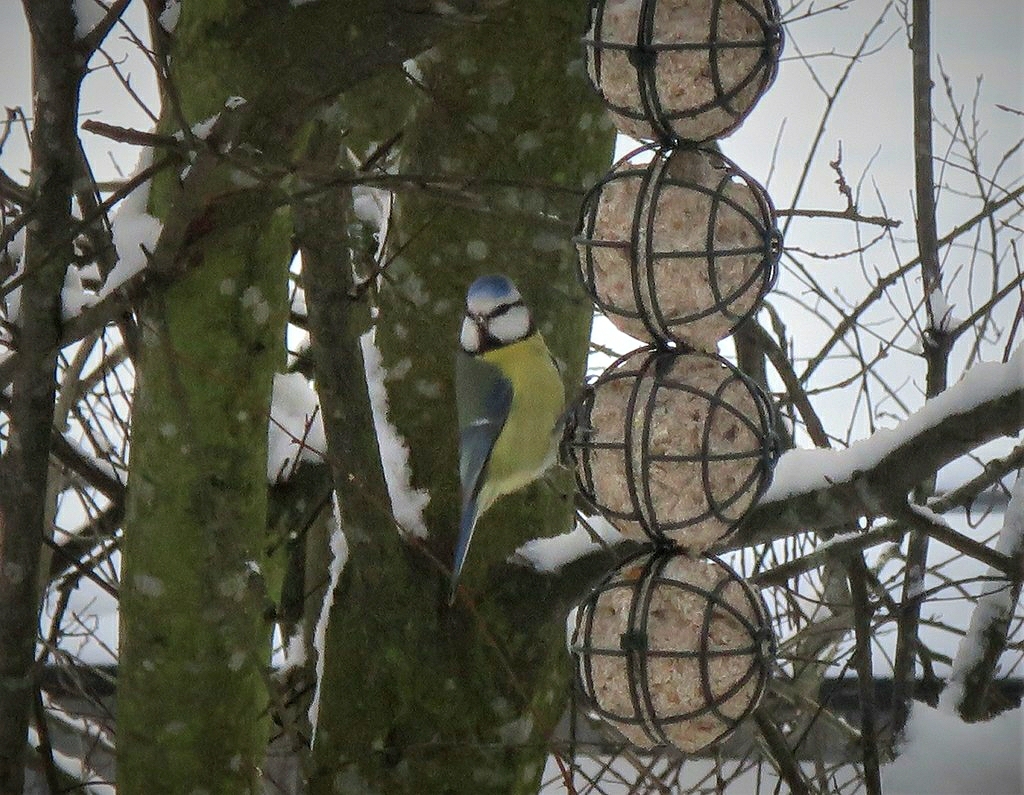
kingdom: Animalia
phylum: Chordata
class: Aves
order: Passeriformes
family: Paridae
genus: Cyanistes
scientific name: Cyanistes caeruleus
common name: Eurasian blue tit
